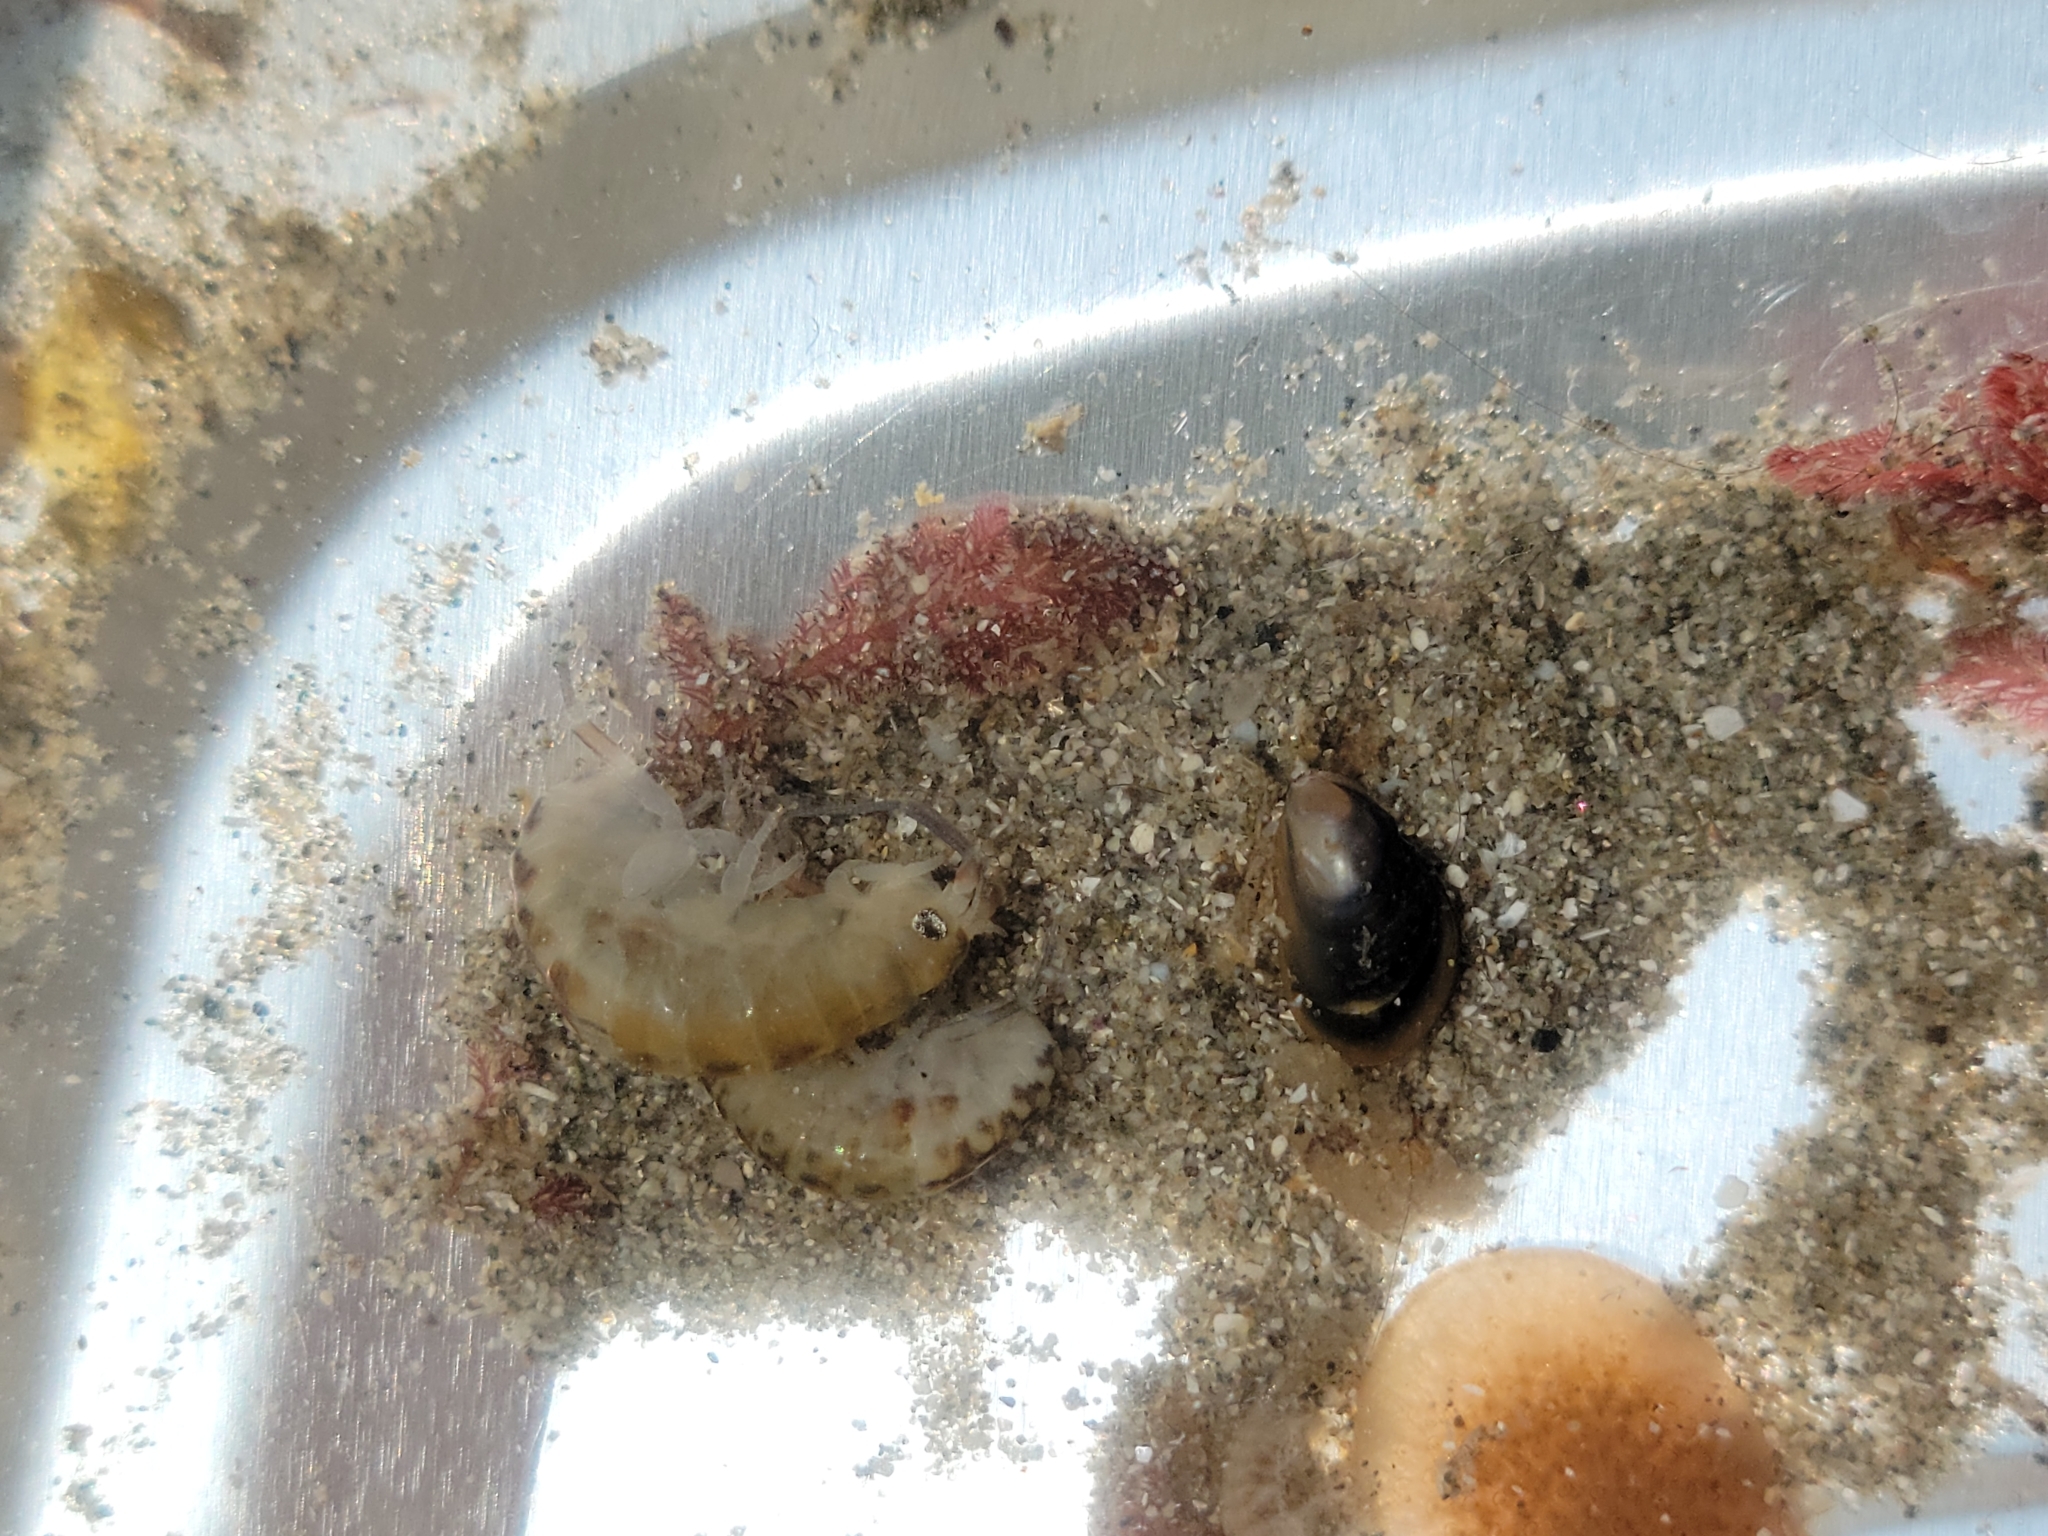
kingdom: Animalia
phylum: Arthropoda
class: Malacostraca
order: Amphipoda
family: Talitridae
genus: Megalorchestia
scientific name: Megalorchestia californiana
